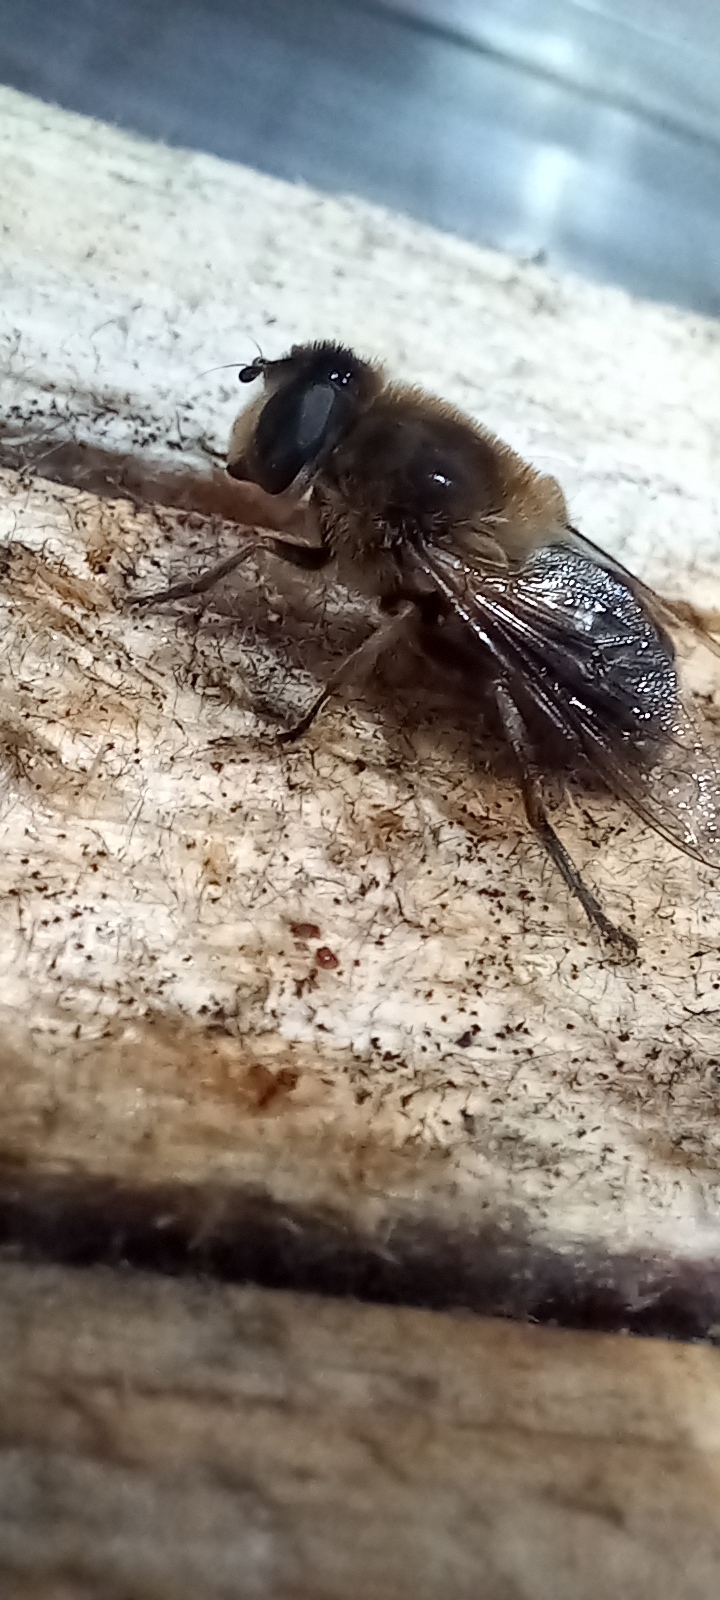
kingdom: Animalia
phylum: Arthropoda
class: Insecta
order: Diptera
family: Syrphidae
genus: Eristalis
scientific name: Eristalis tenax
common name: Drone fly
